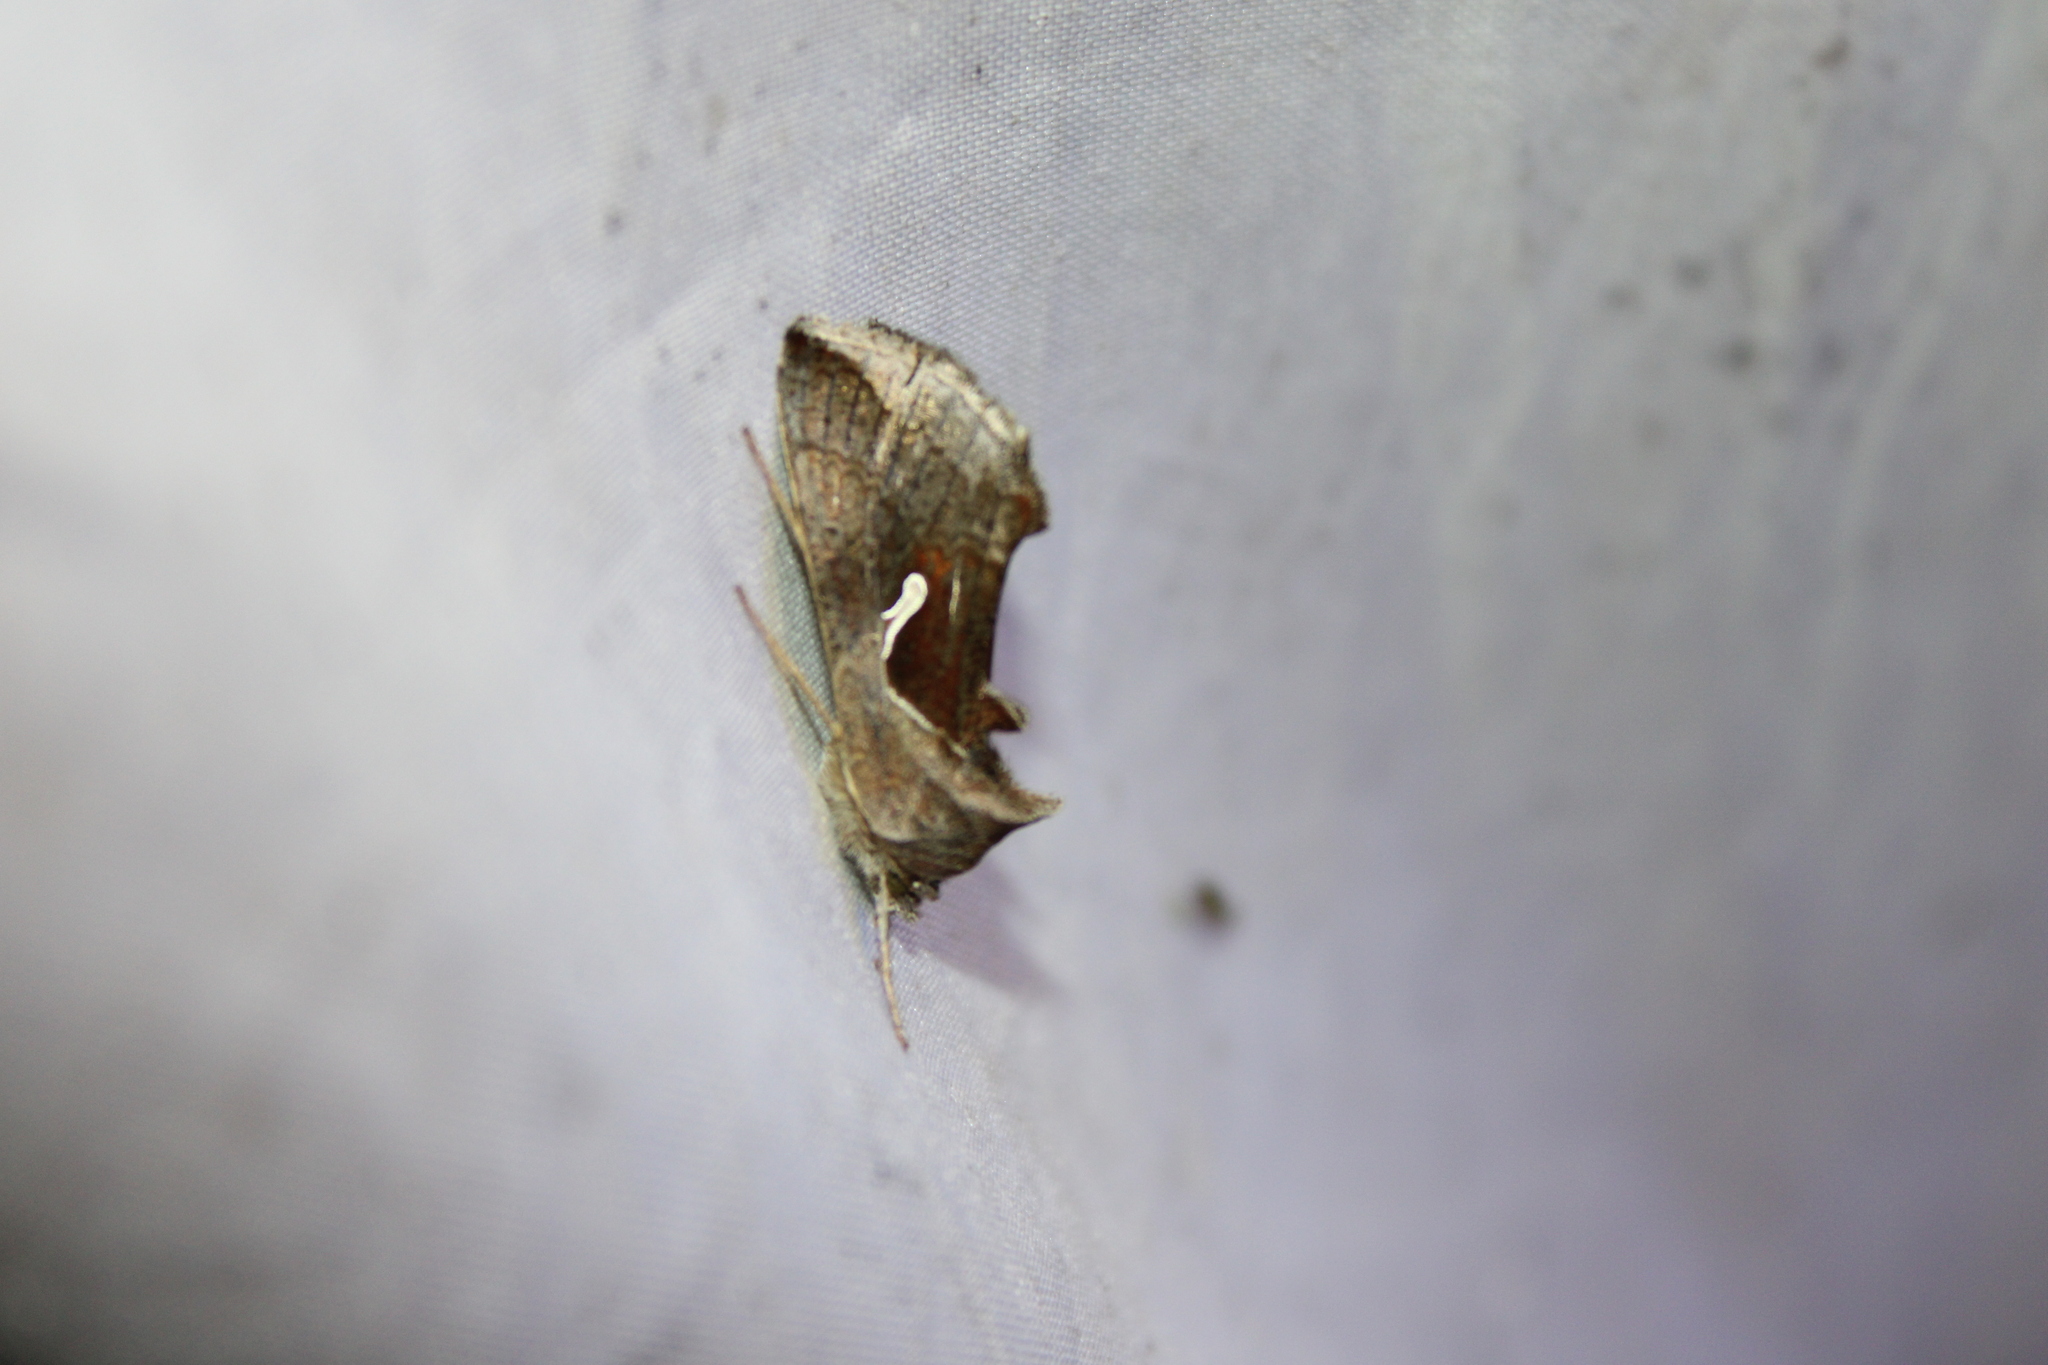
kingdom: Animalia
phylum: Arthropoda
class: Insecta
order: Lepidoptera
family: Noctuidae
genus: Anagrapha
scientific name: Anagrapha falcifera
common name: Celery looper
